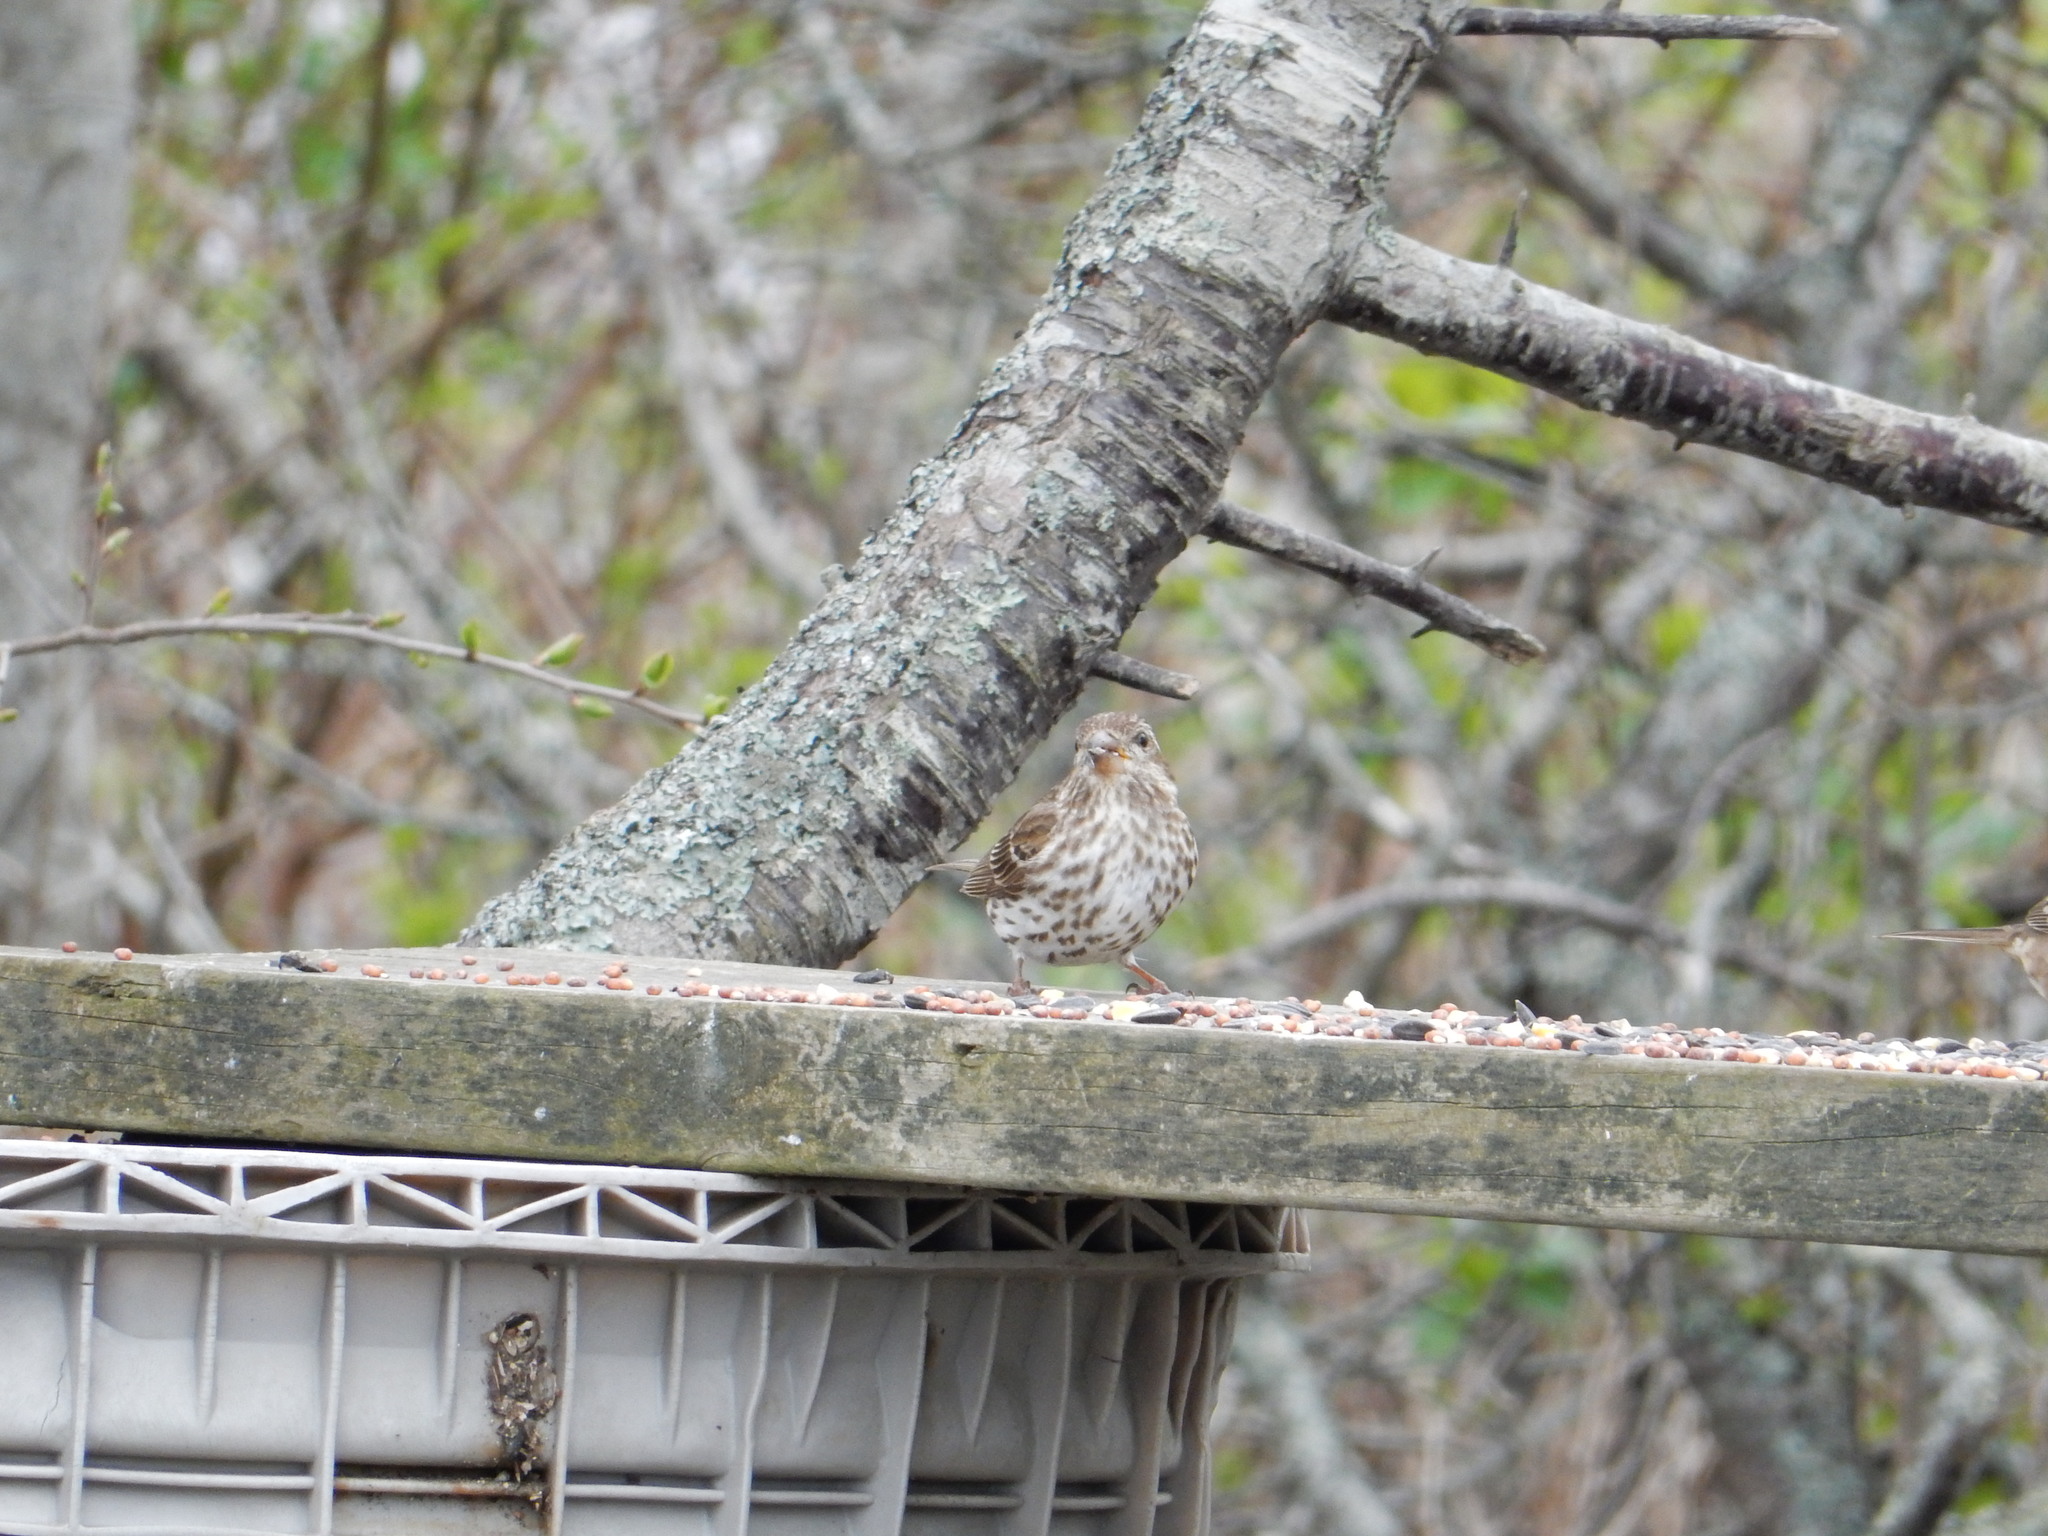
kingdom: Animalia
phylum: Chordata
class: Aves
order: Passeriformes
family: Fringillidae
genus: Haemorhous
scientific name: Haemorhous purpureus
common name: Purple finch
